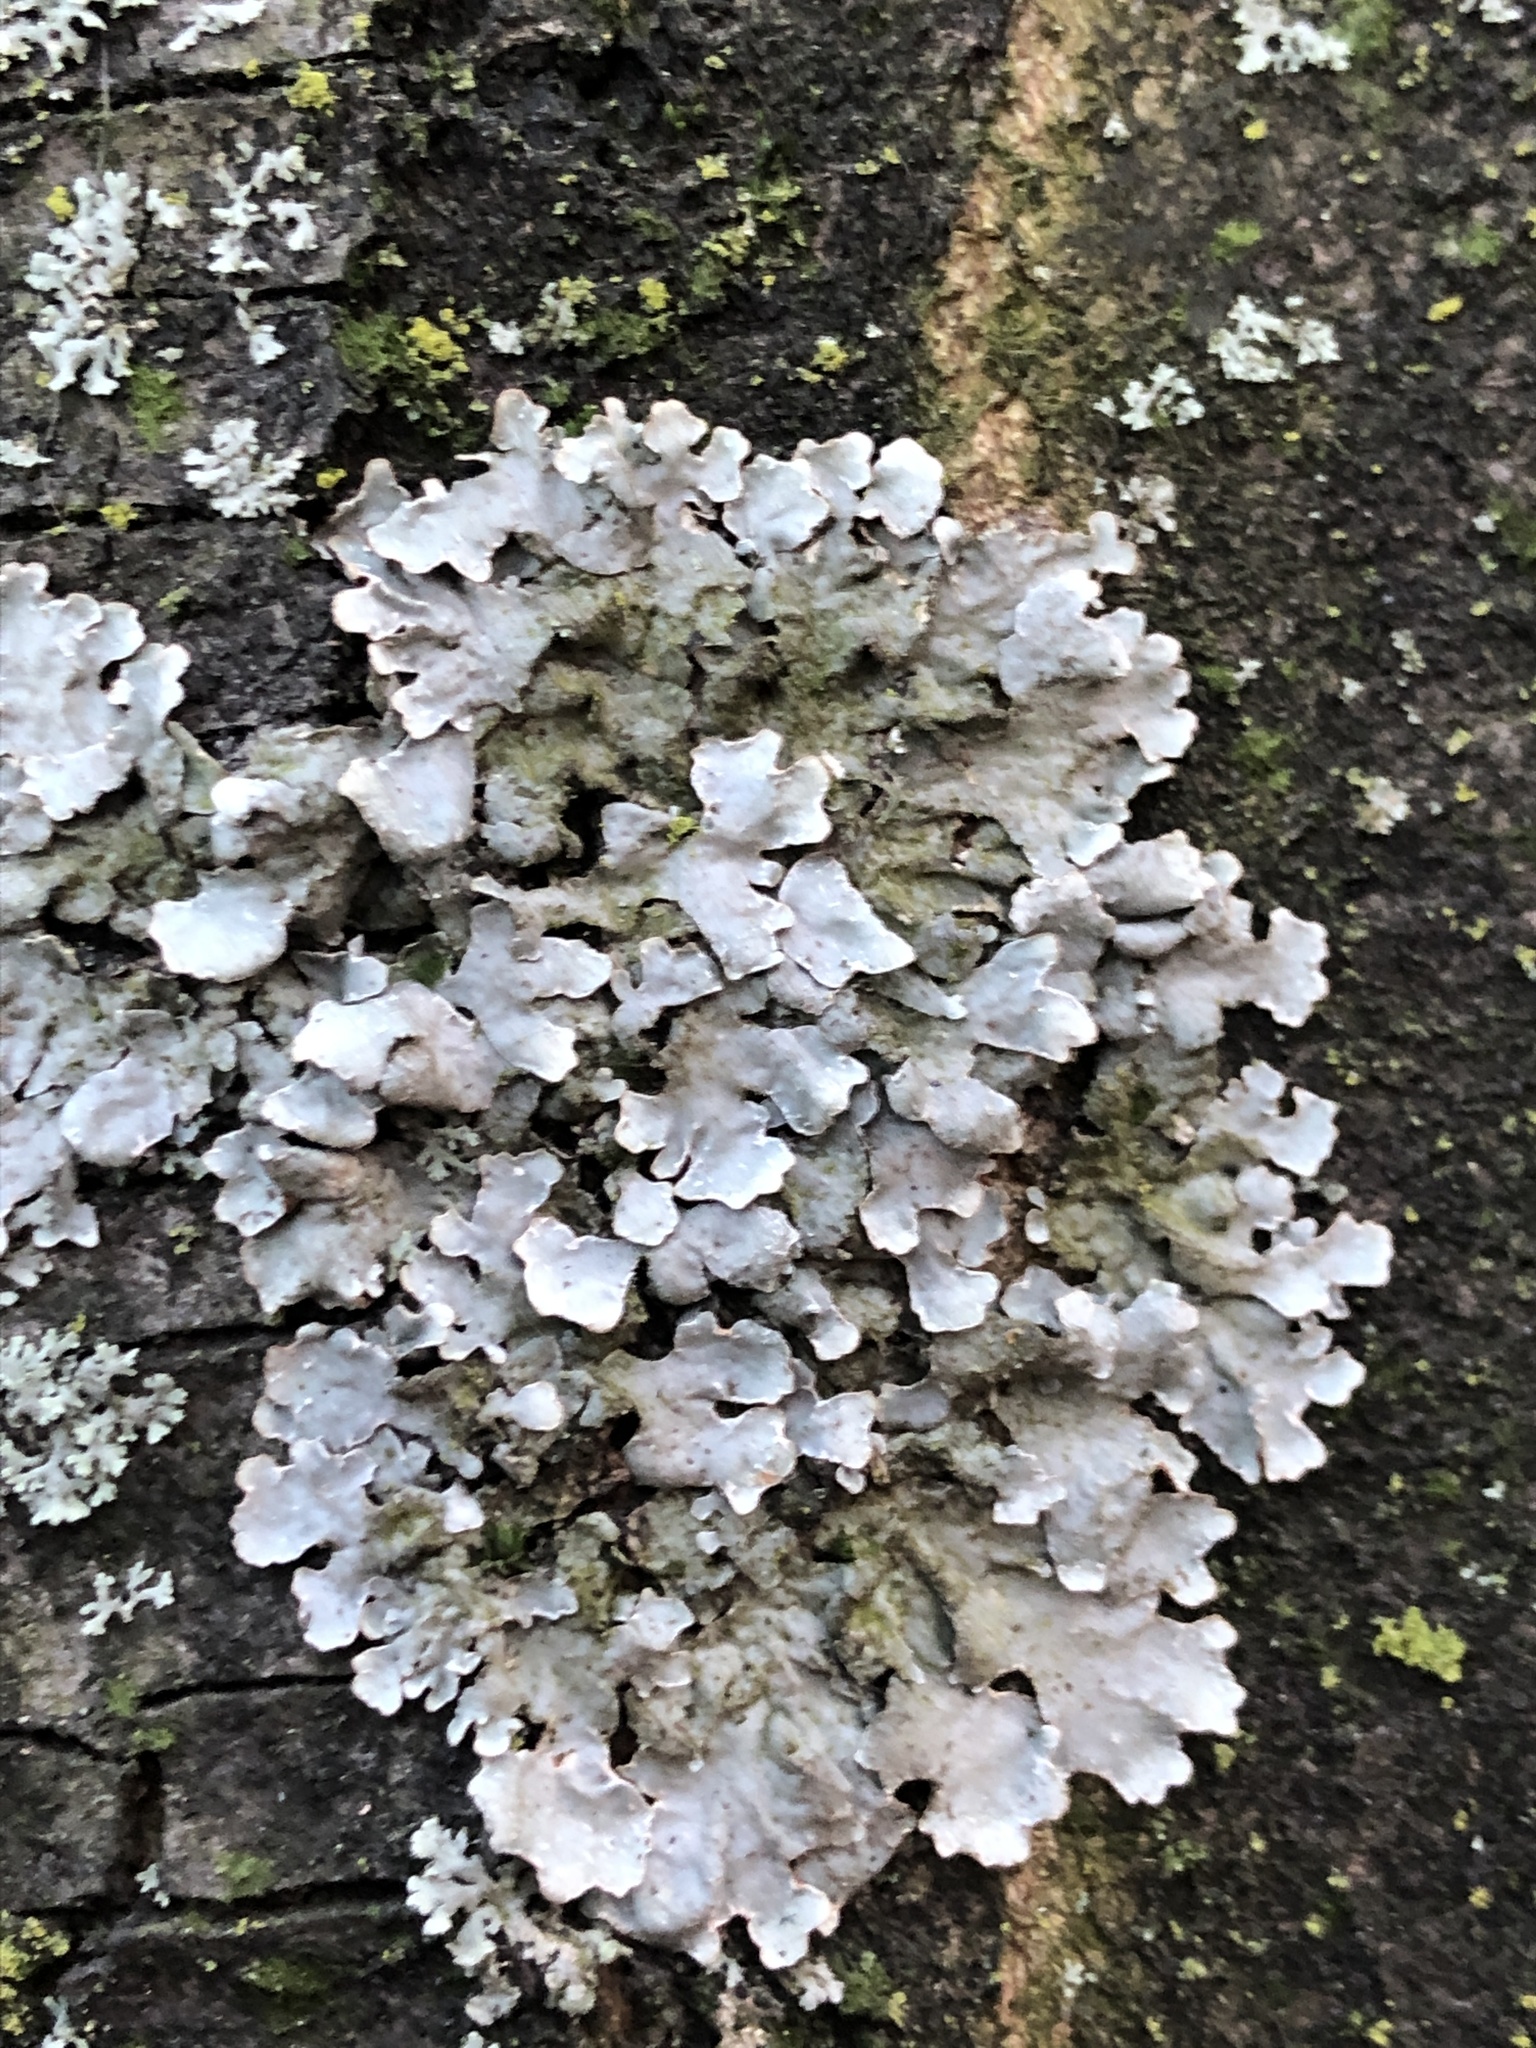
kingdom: Fungi
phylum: Ascomycota
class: Lecanoromycetes
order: Lecanorales
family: Parmeliaceae
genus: Parmelia
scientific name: Parmelia sulcata
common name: Netted shield lichen
